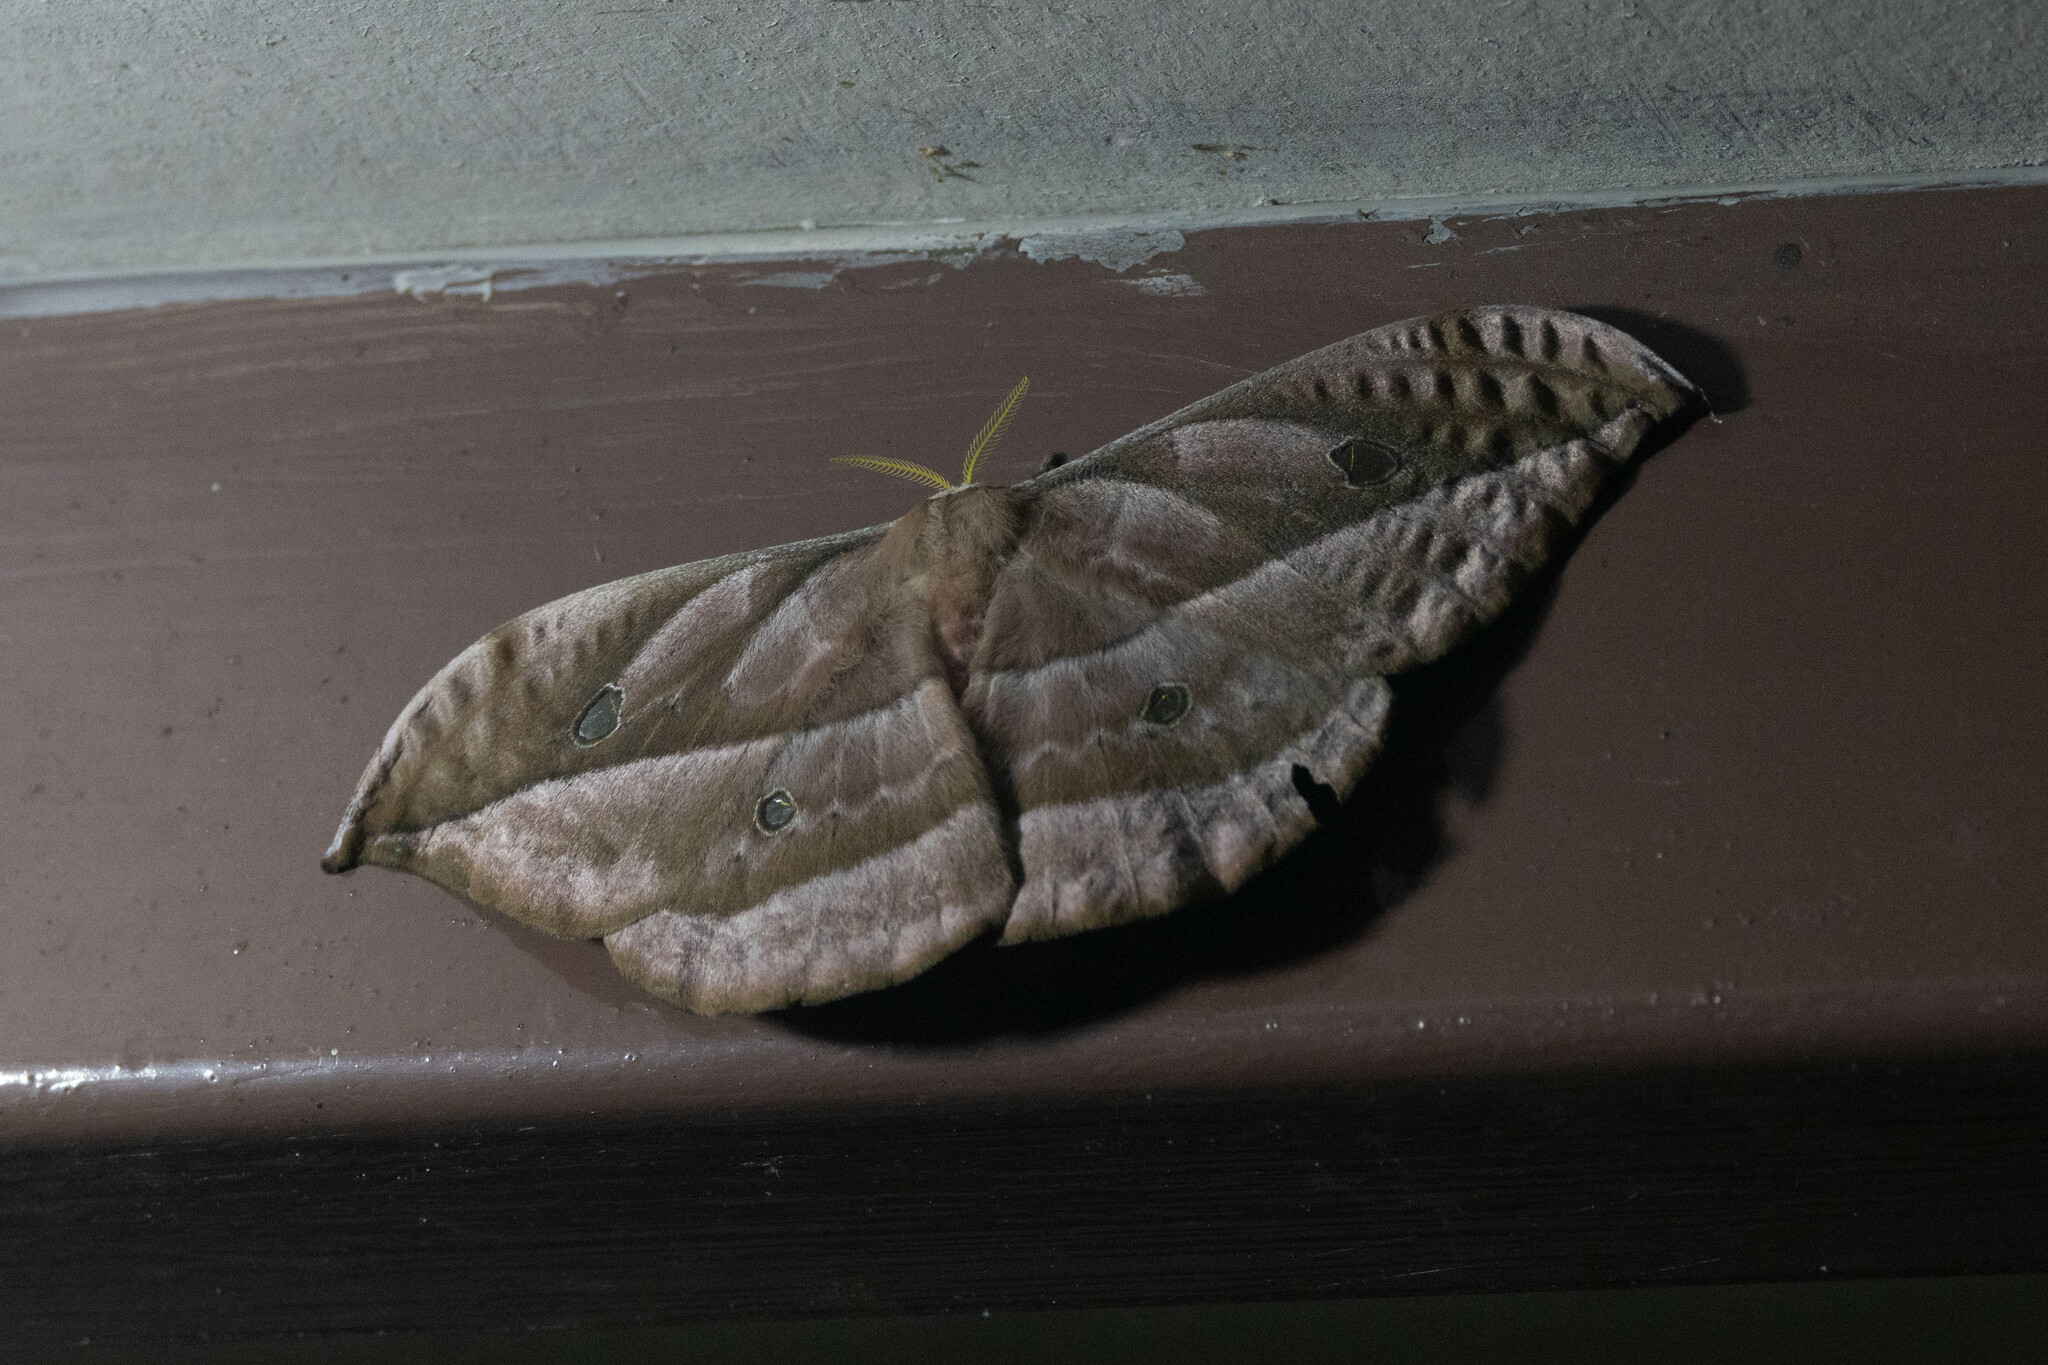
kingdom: Animalia
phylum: Arthropoda
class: Insecta
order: Lepidoptera
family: Saturniidae
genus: Copaxa
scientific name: Copaxa koenigi
